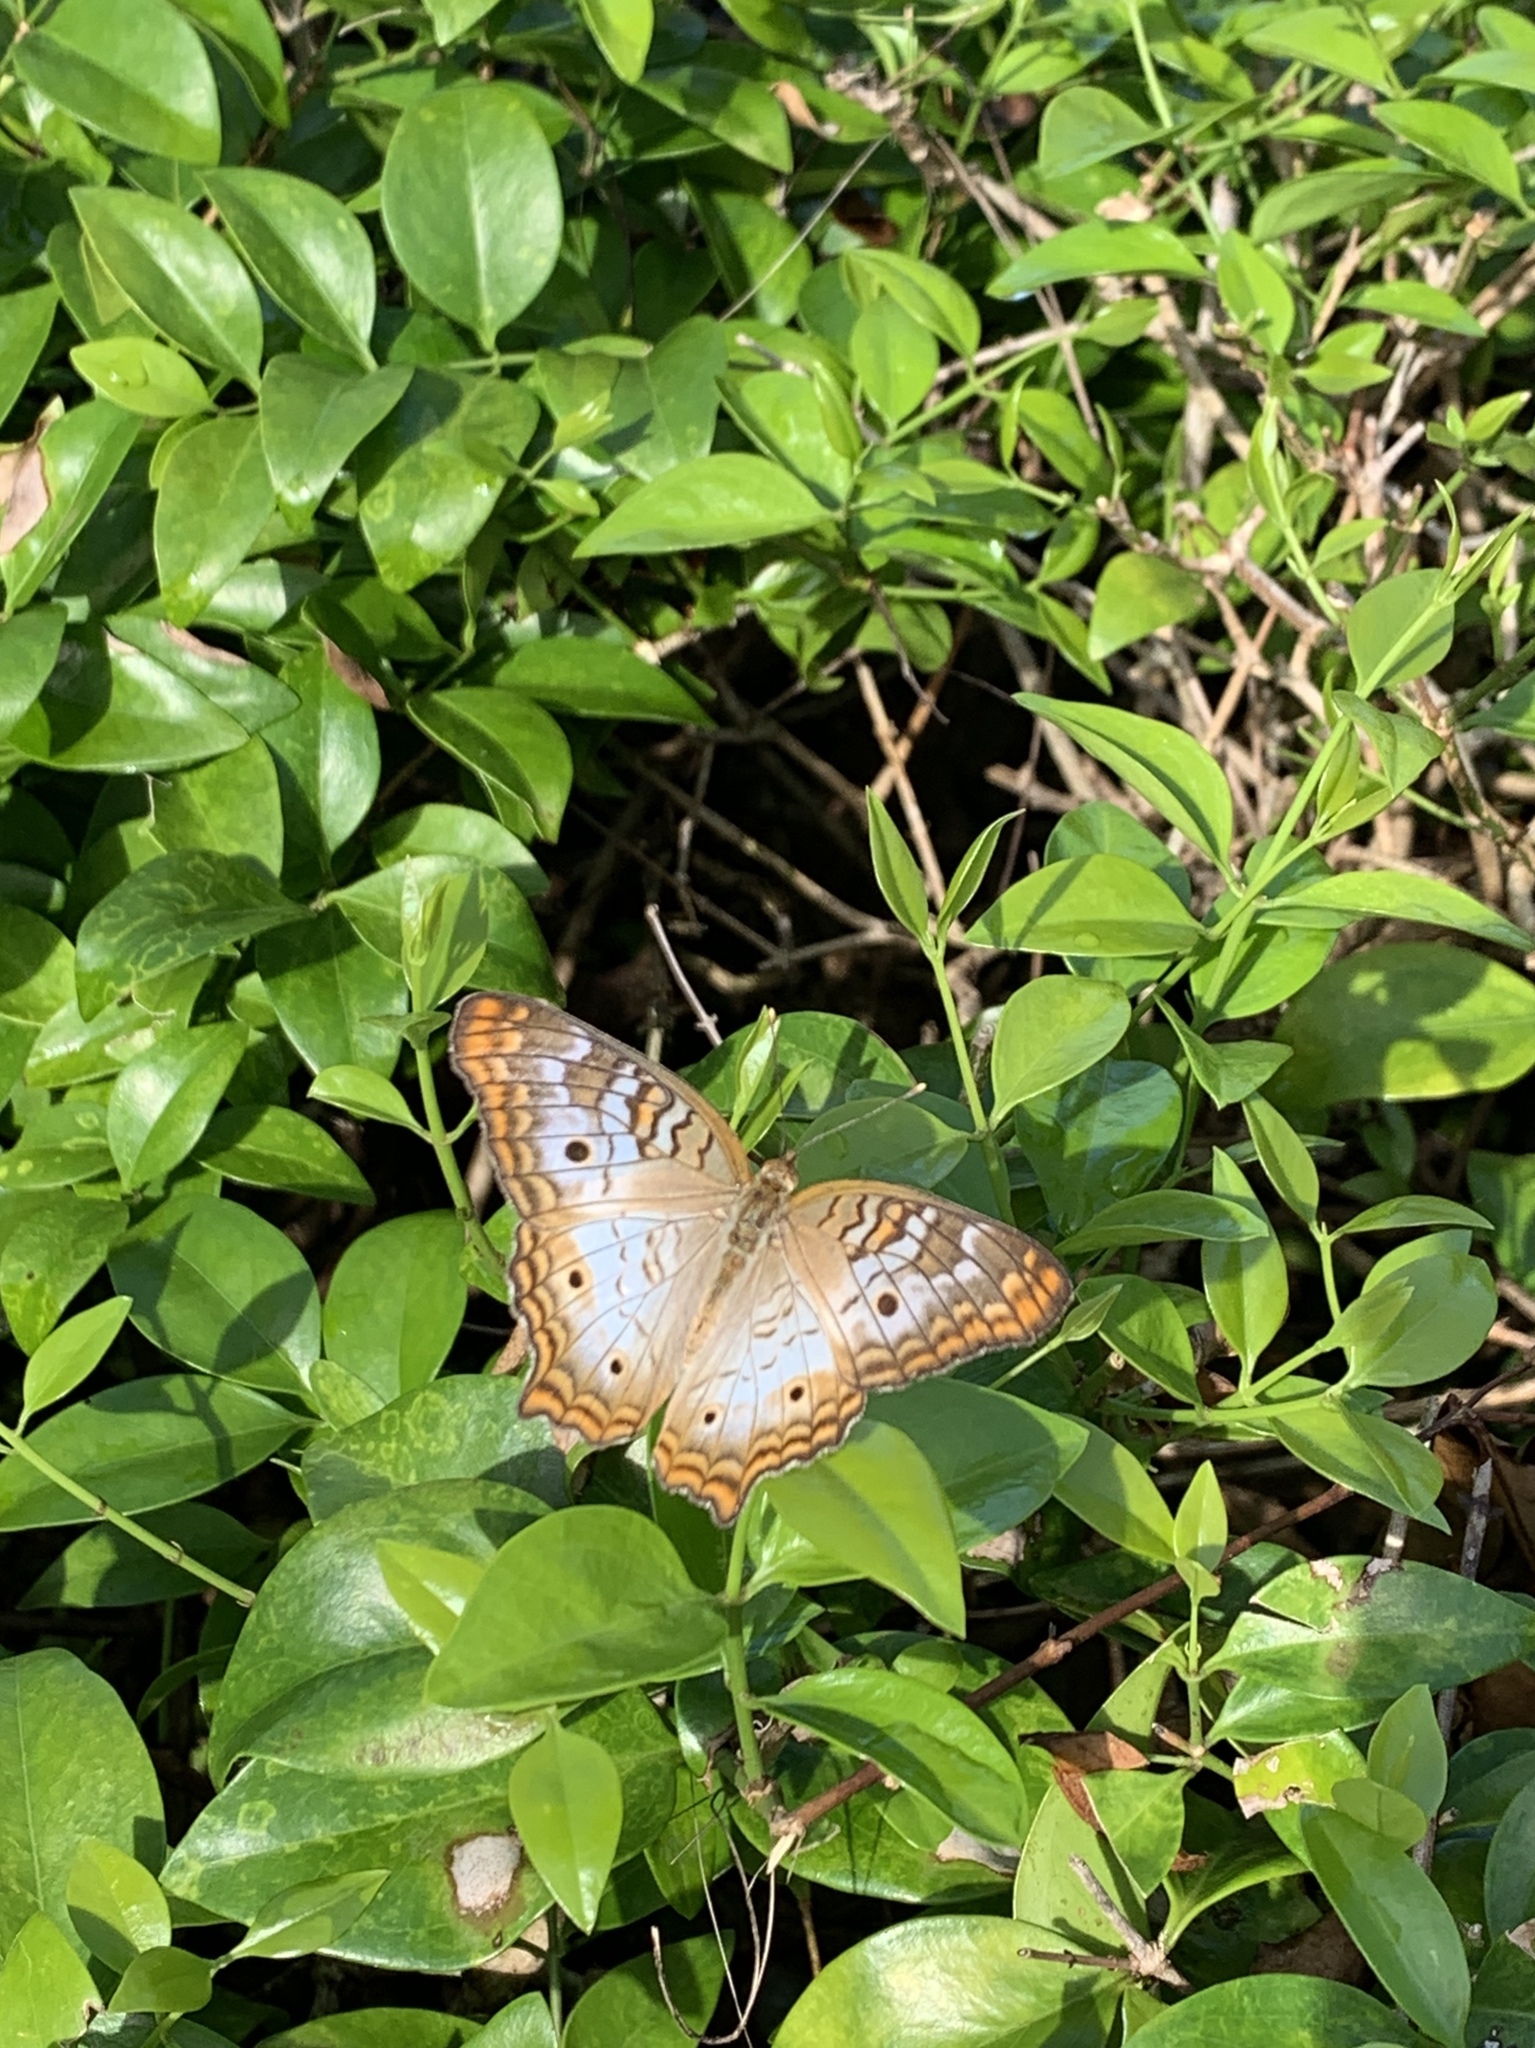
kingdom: Animalia
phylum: Arthropoda
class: Insecta
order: Lepidoptera
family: Nymphalidae
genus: Anartia
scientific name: Anartia jatrophae
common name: White peacock
